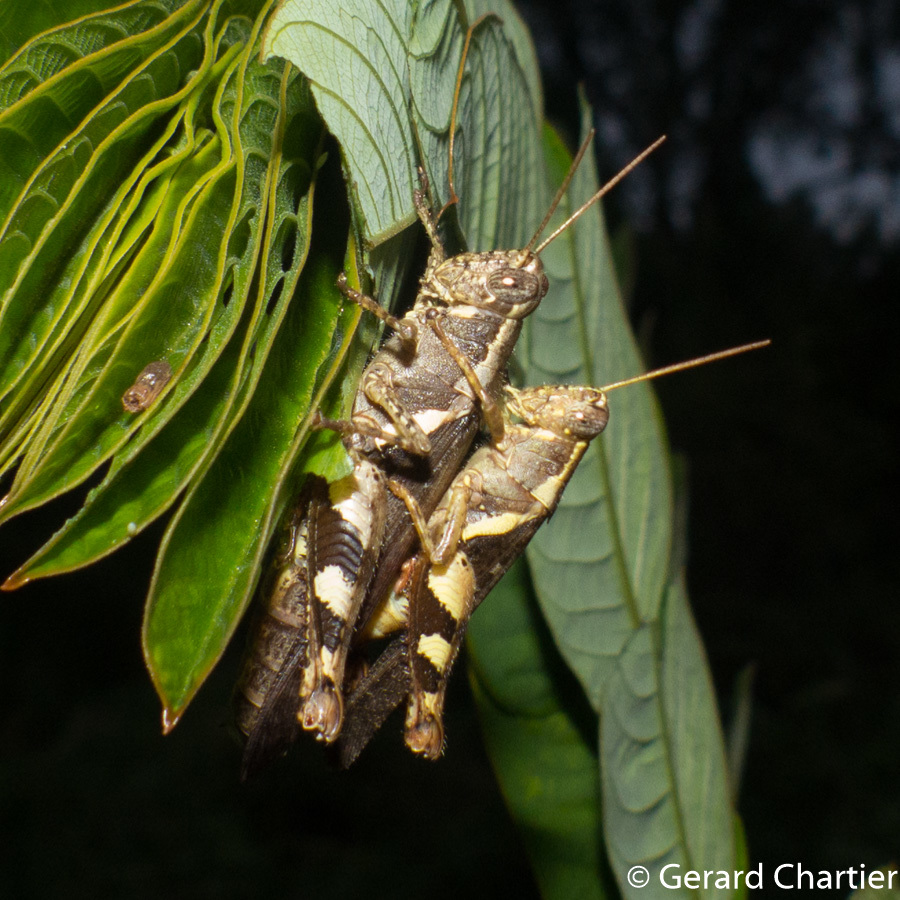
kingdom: Animalia
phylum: Arthropoda
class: Insecta
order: Orthoptera
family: Acrididae
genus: Xenocatantops
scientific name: Xenocatantops humile
